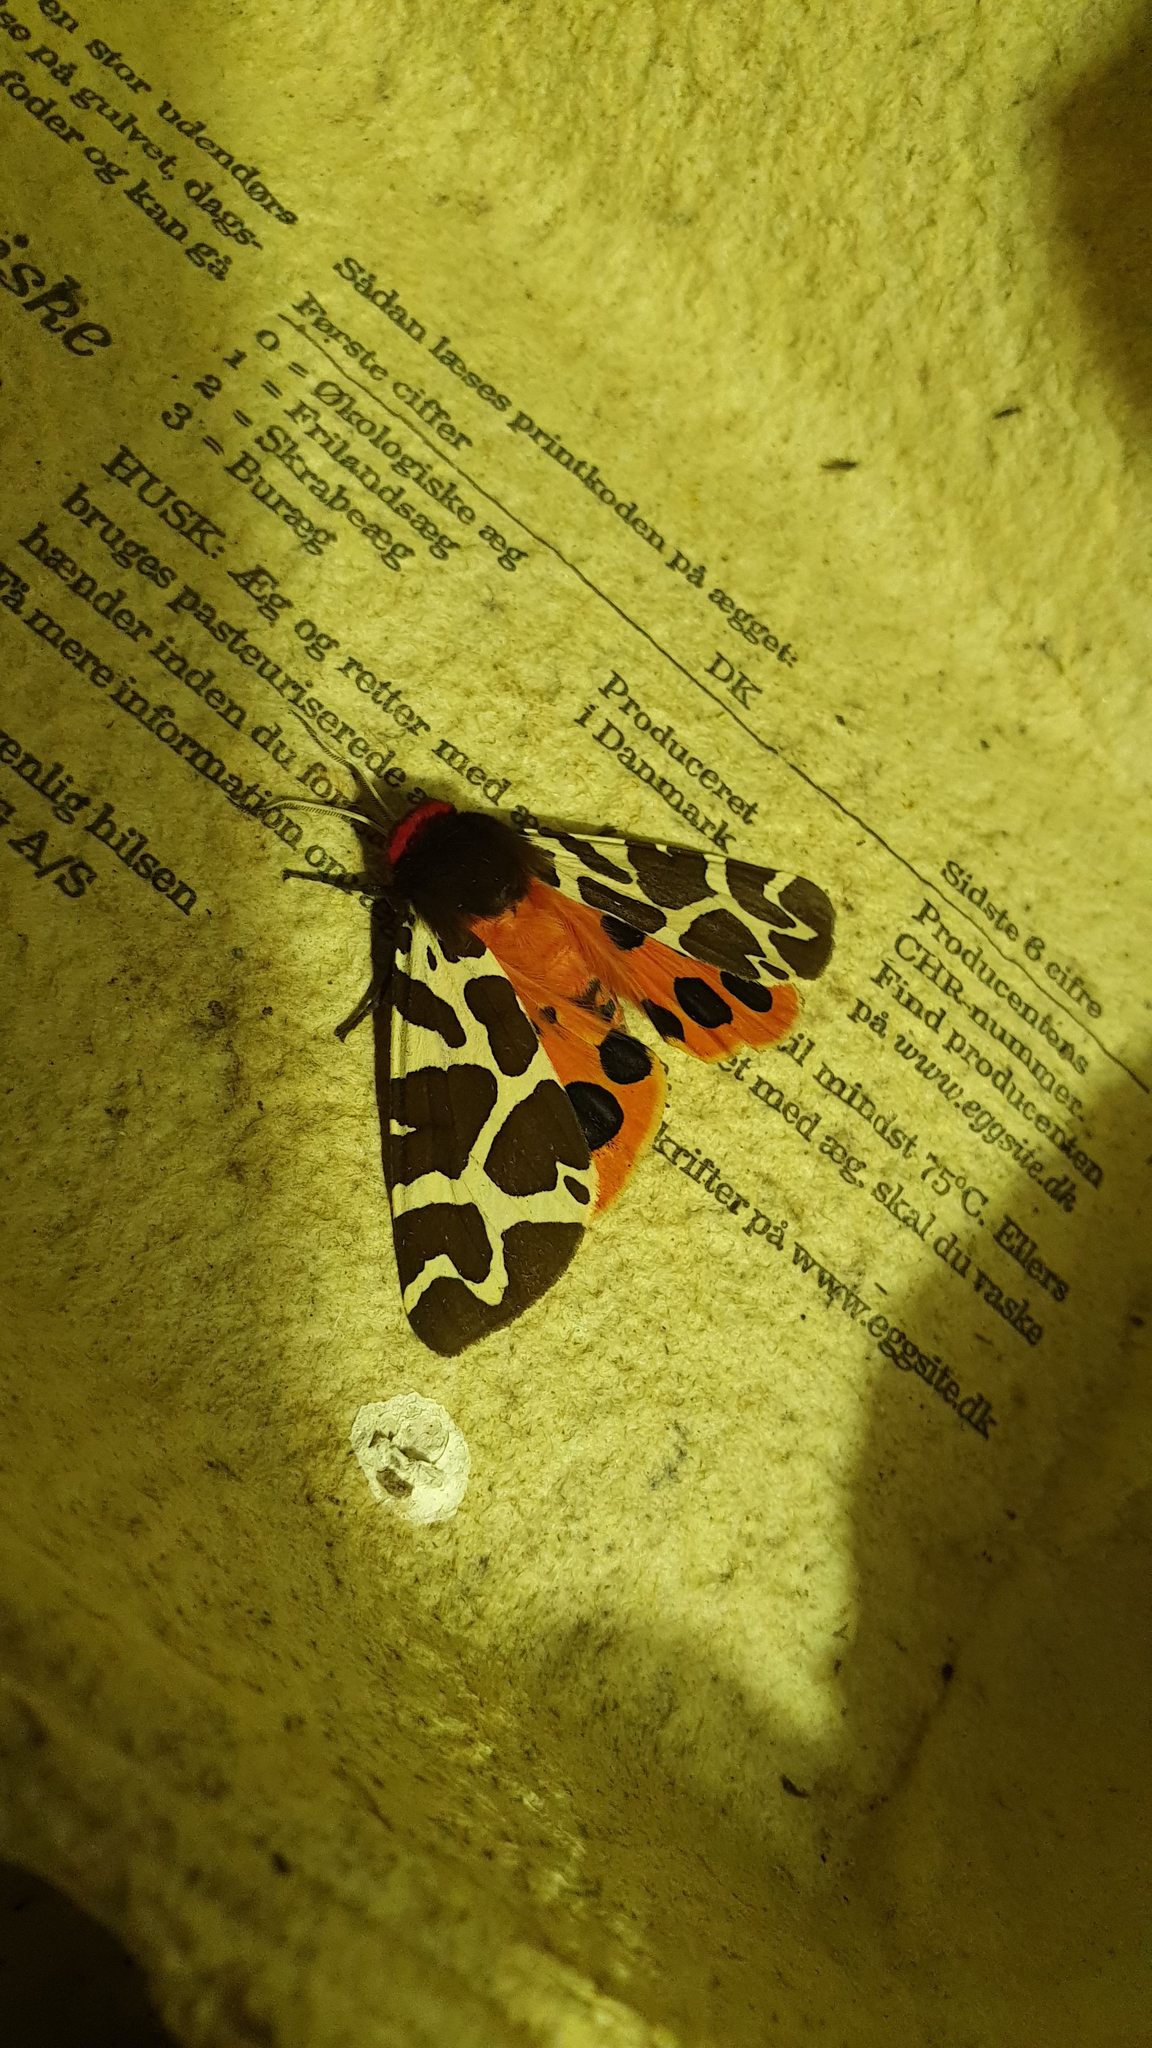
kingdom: Animalia
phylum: Arthropoda
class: Insecta
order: Lepidoptera
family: Erebidae
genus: Arctia
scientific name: Arctia caja
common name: Garden tiger
